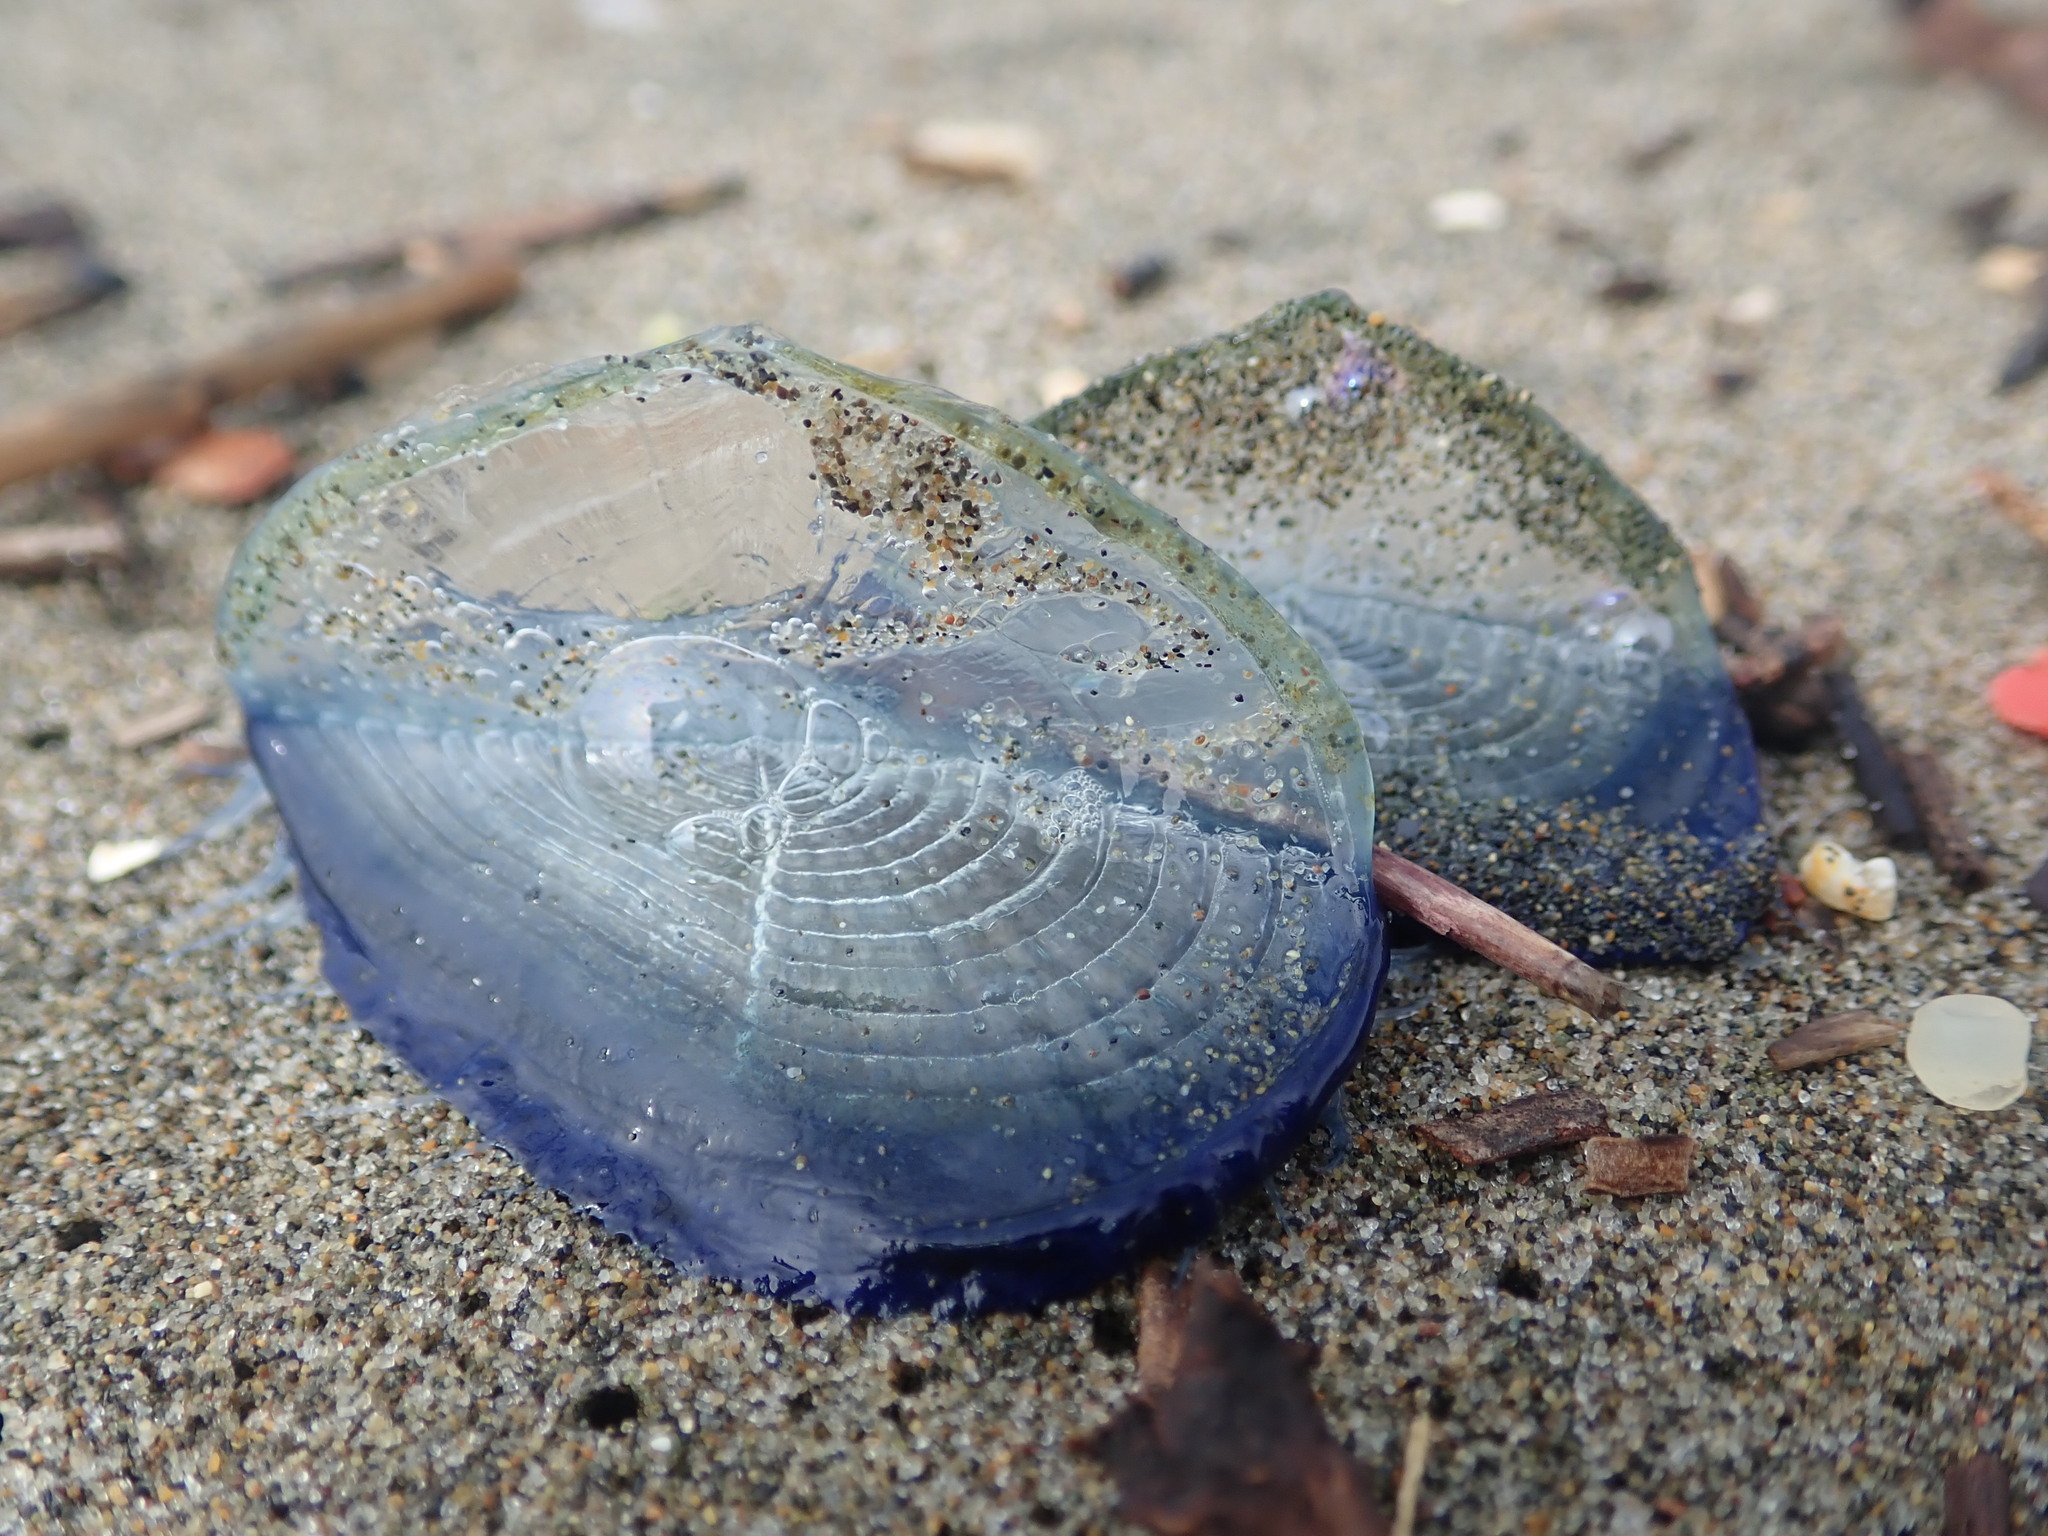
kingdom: Animalia
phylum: Cnidaria
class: Hydrozoa
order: Anthoathecata
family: Porpitidae
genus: Velella
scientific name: Velella velella
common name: By-the-wind-sailor
